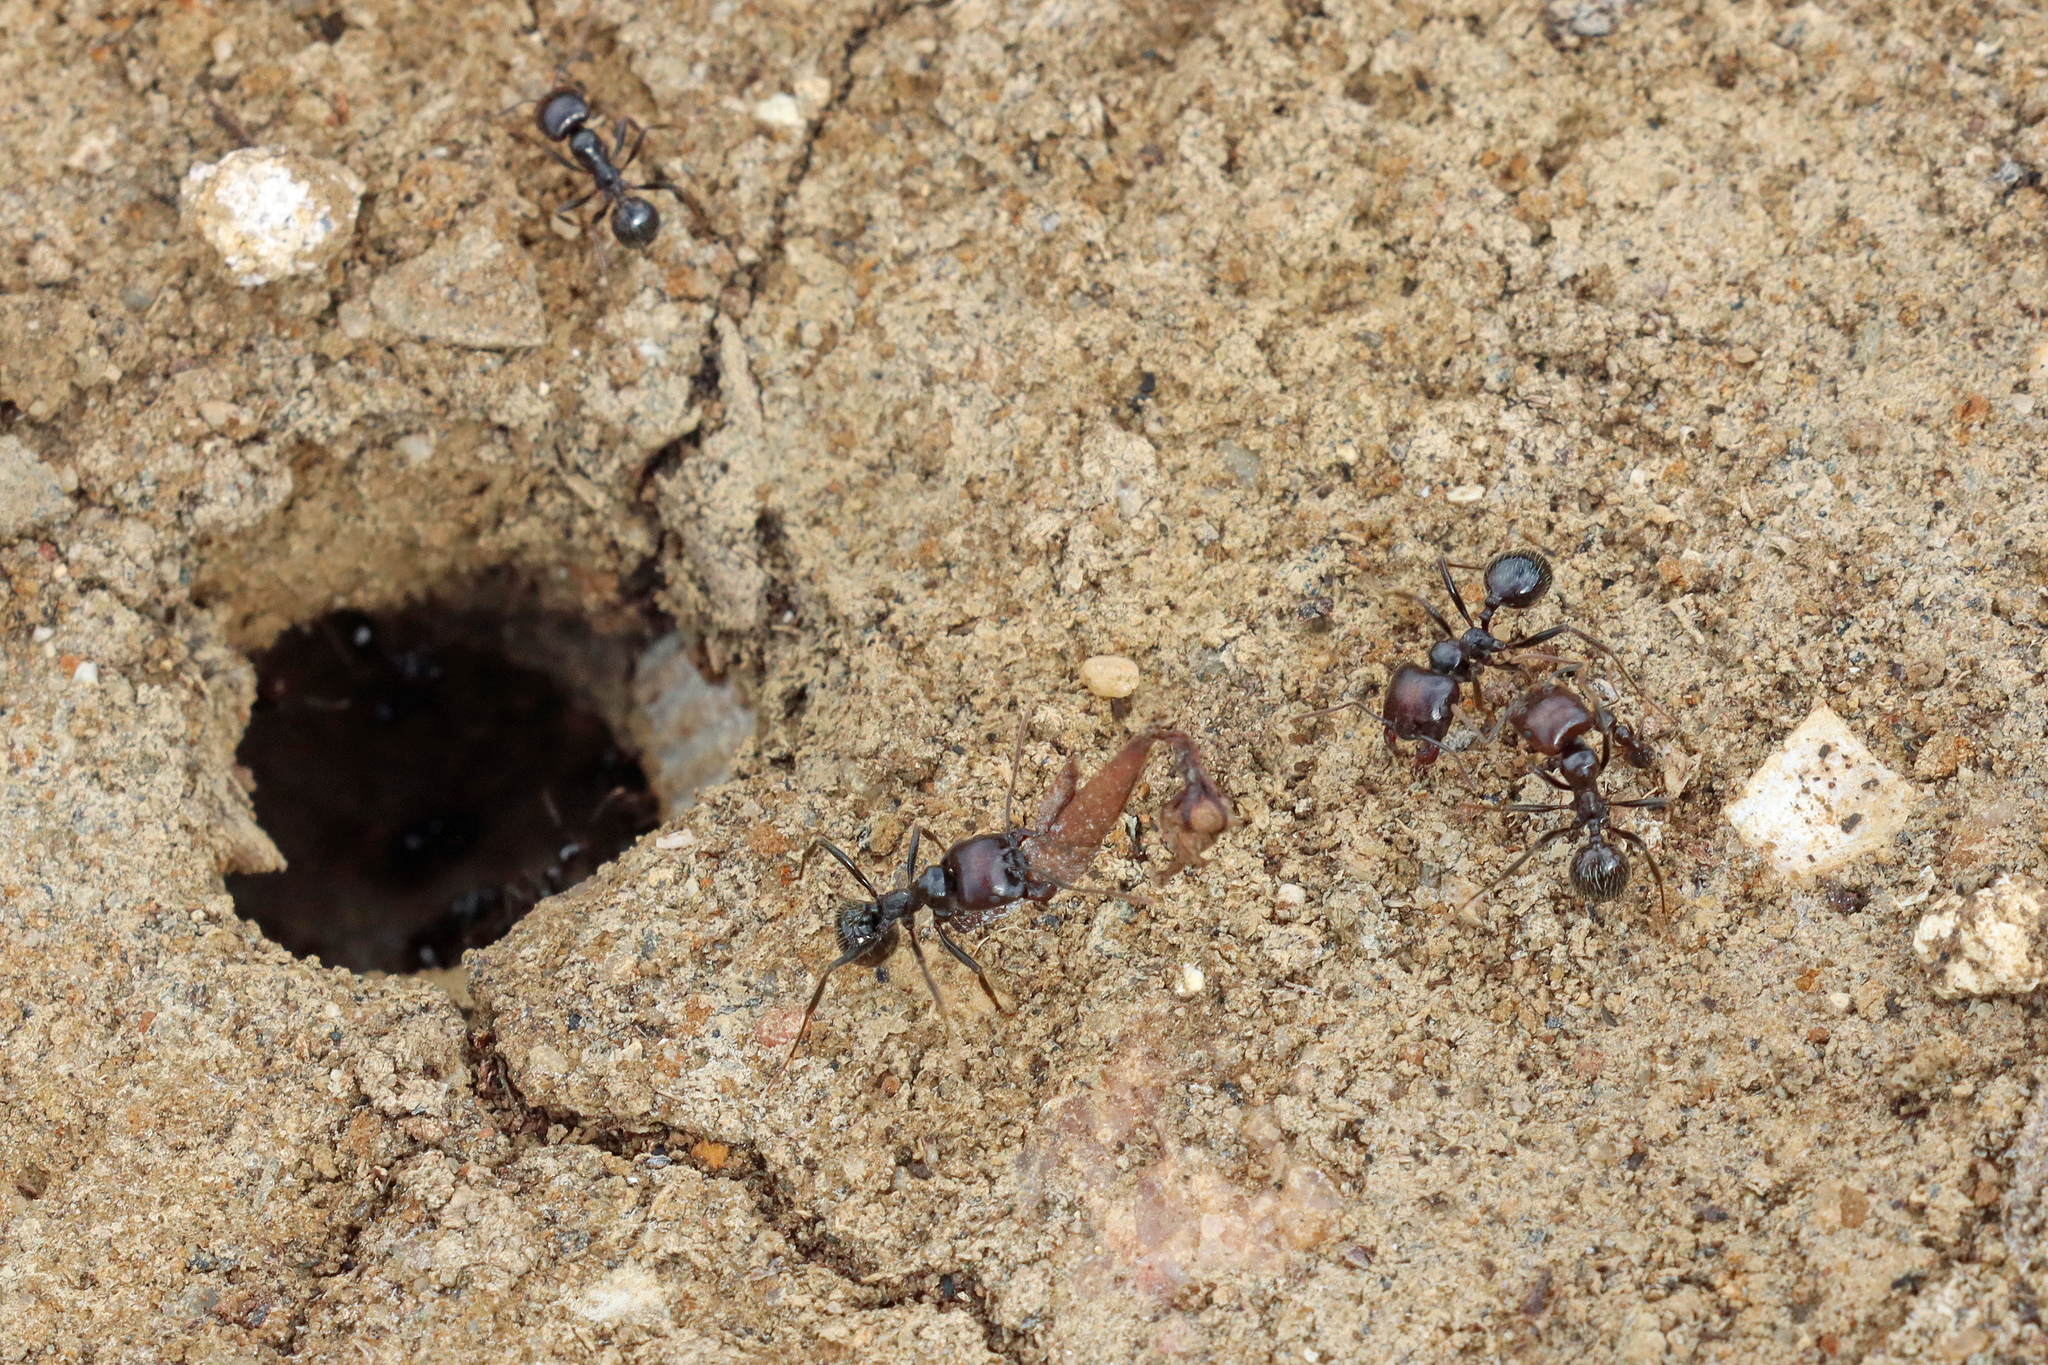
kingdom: Animalia
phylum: Arthropoda
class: Insecta
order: Hymenoptera
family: Formicidae
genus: Messor
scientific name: Messor barbarus
